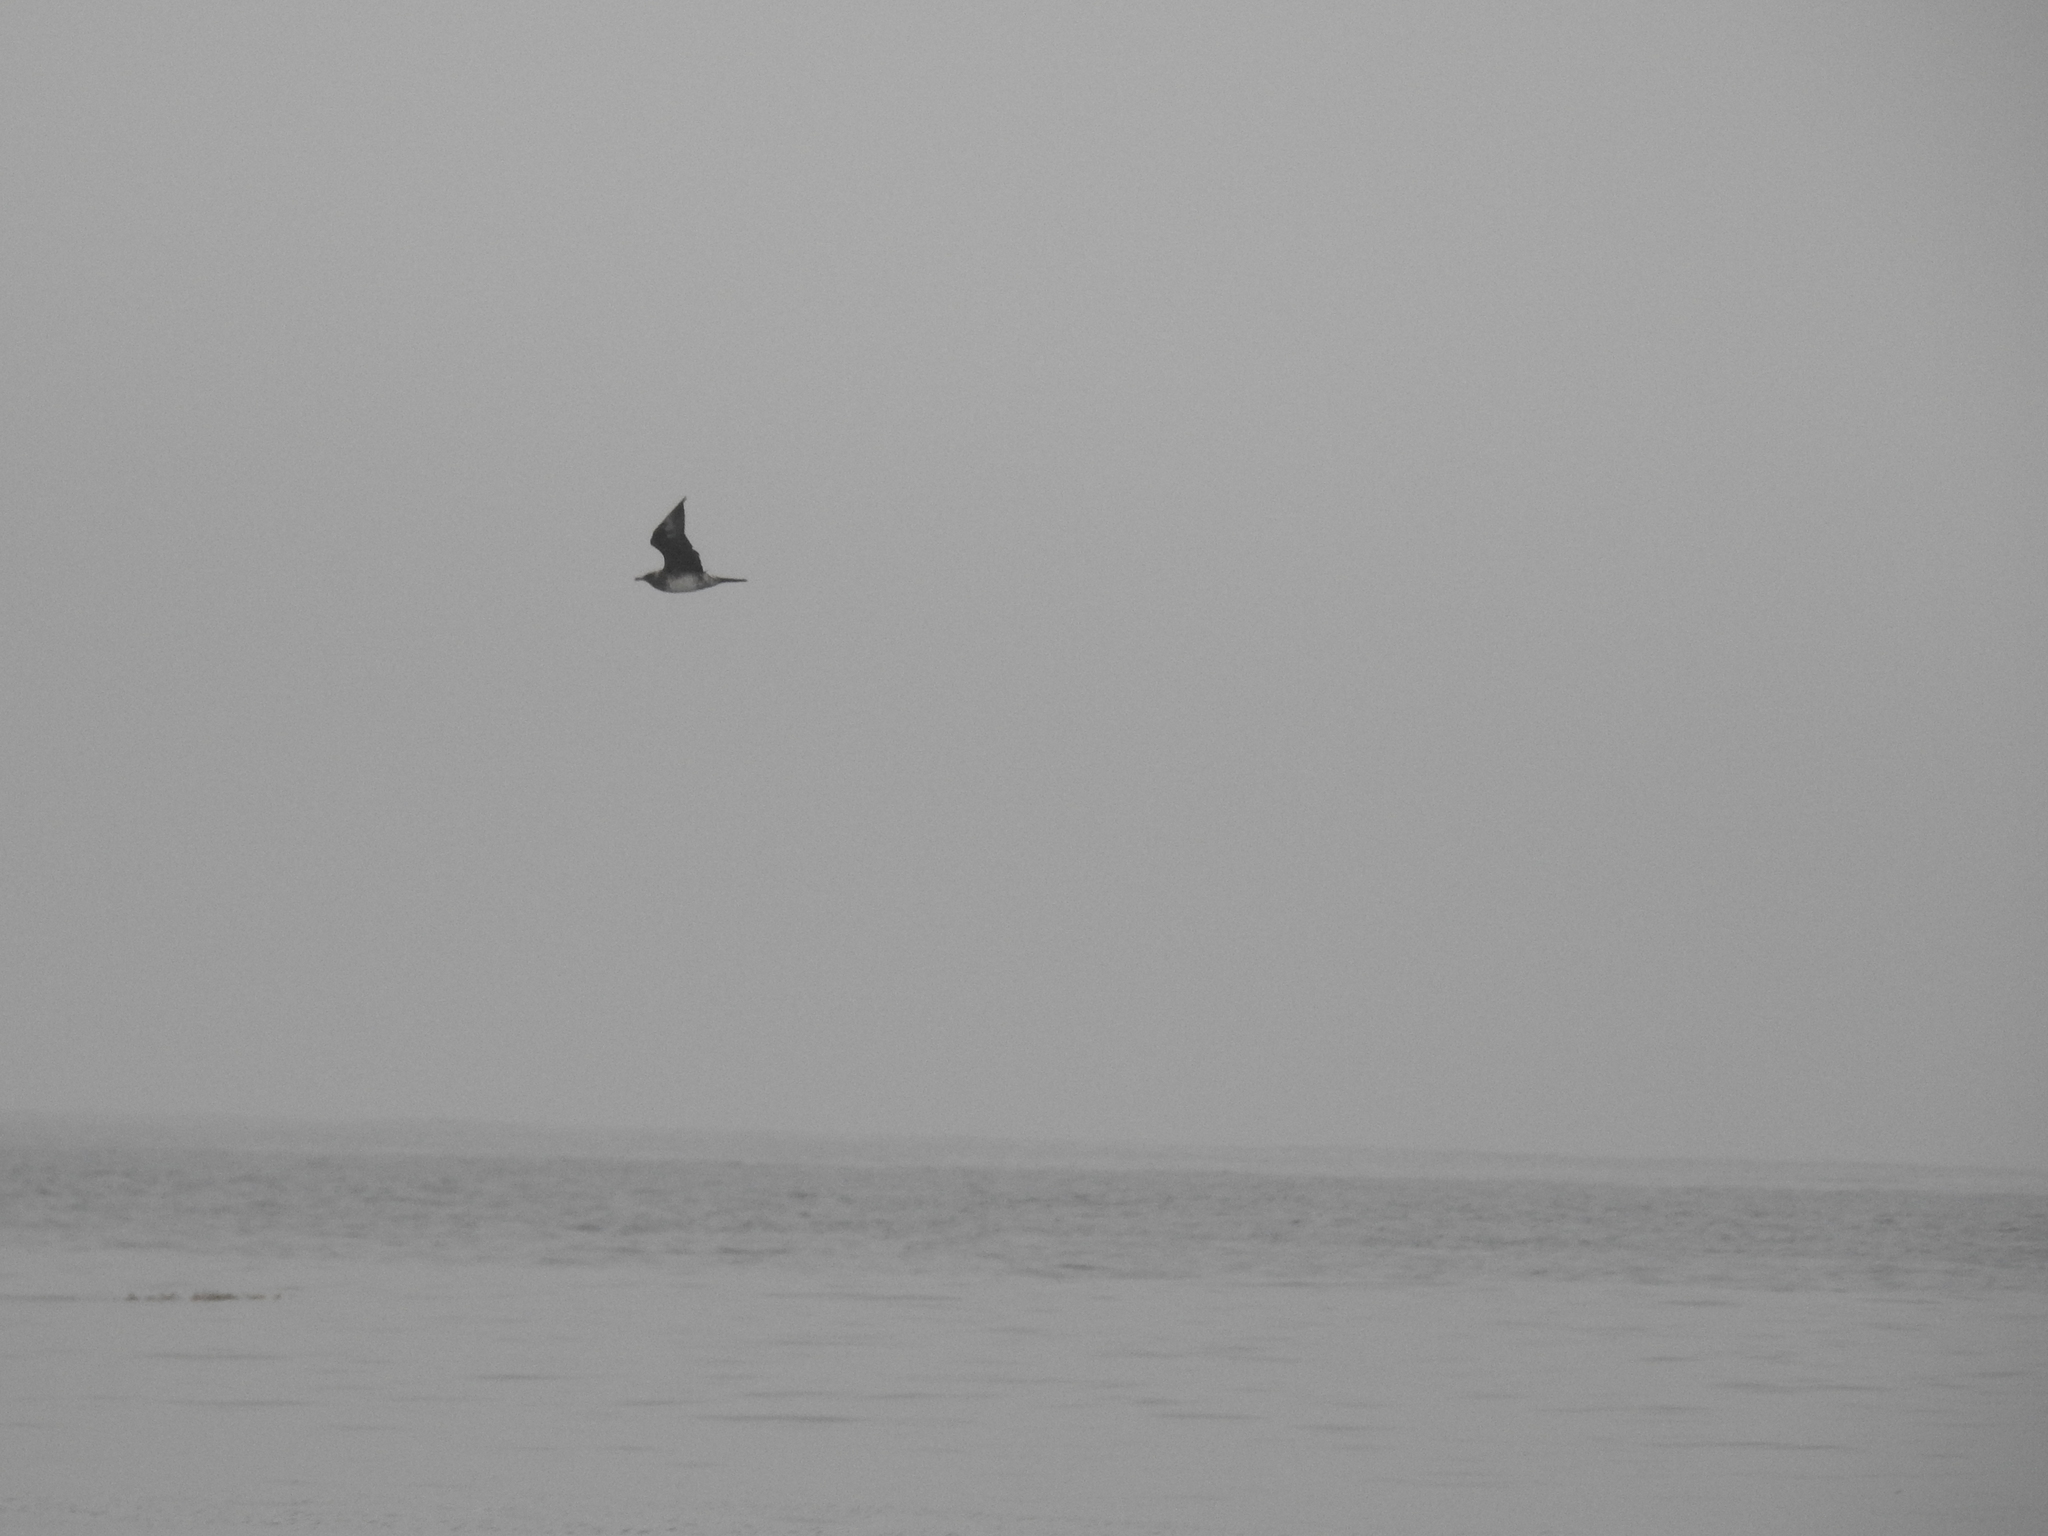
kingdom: Animalia
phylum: Chordata
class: Aves
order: Charadriiformes
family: Stercorariidae
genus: Stercorarius
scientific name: Stercorarius pomarinus
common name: Pomarine jaeger
